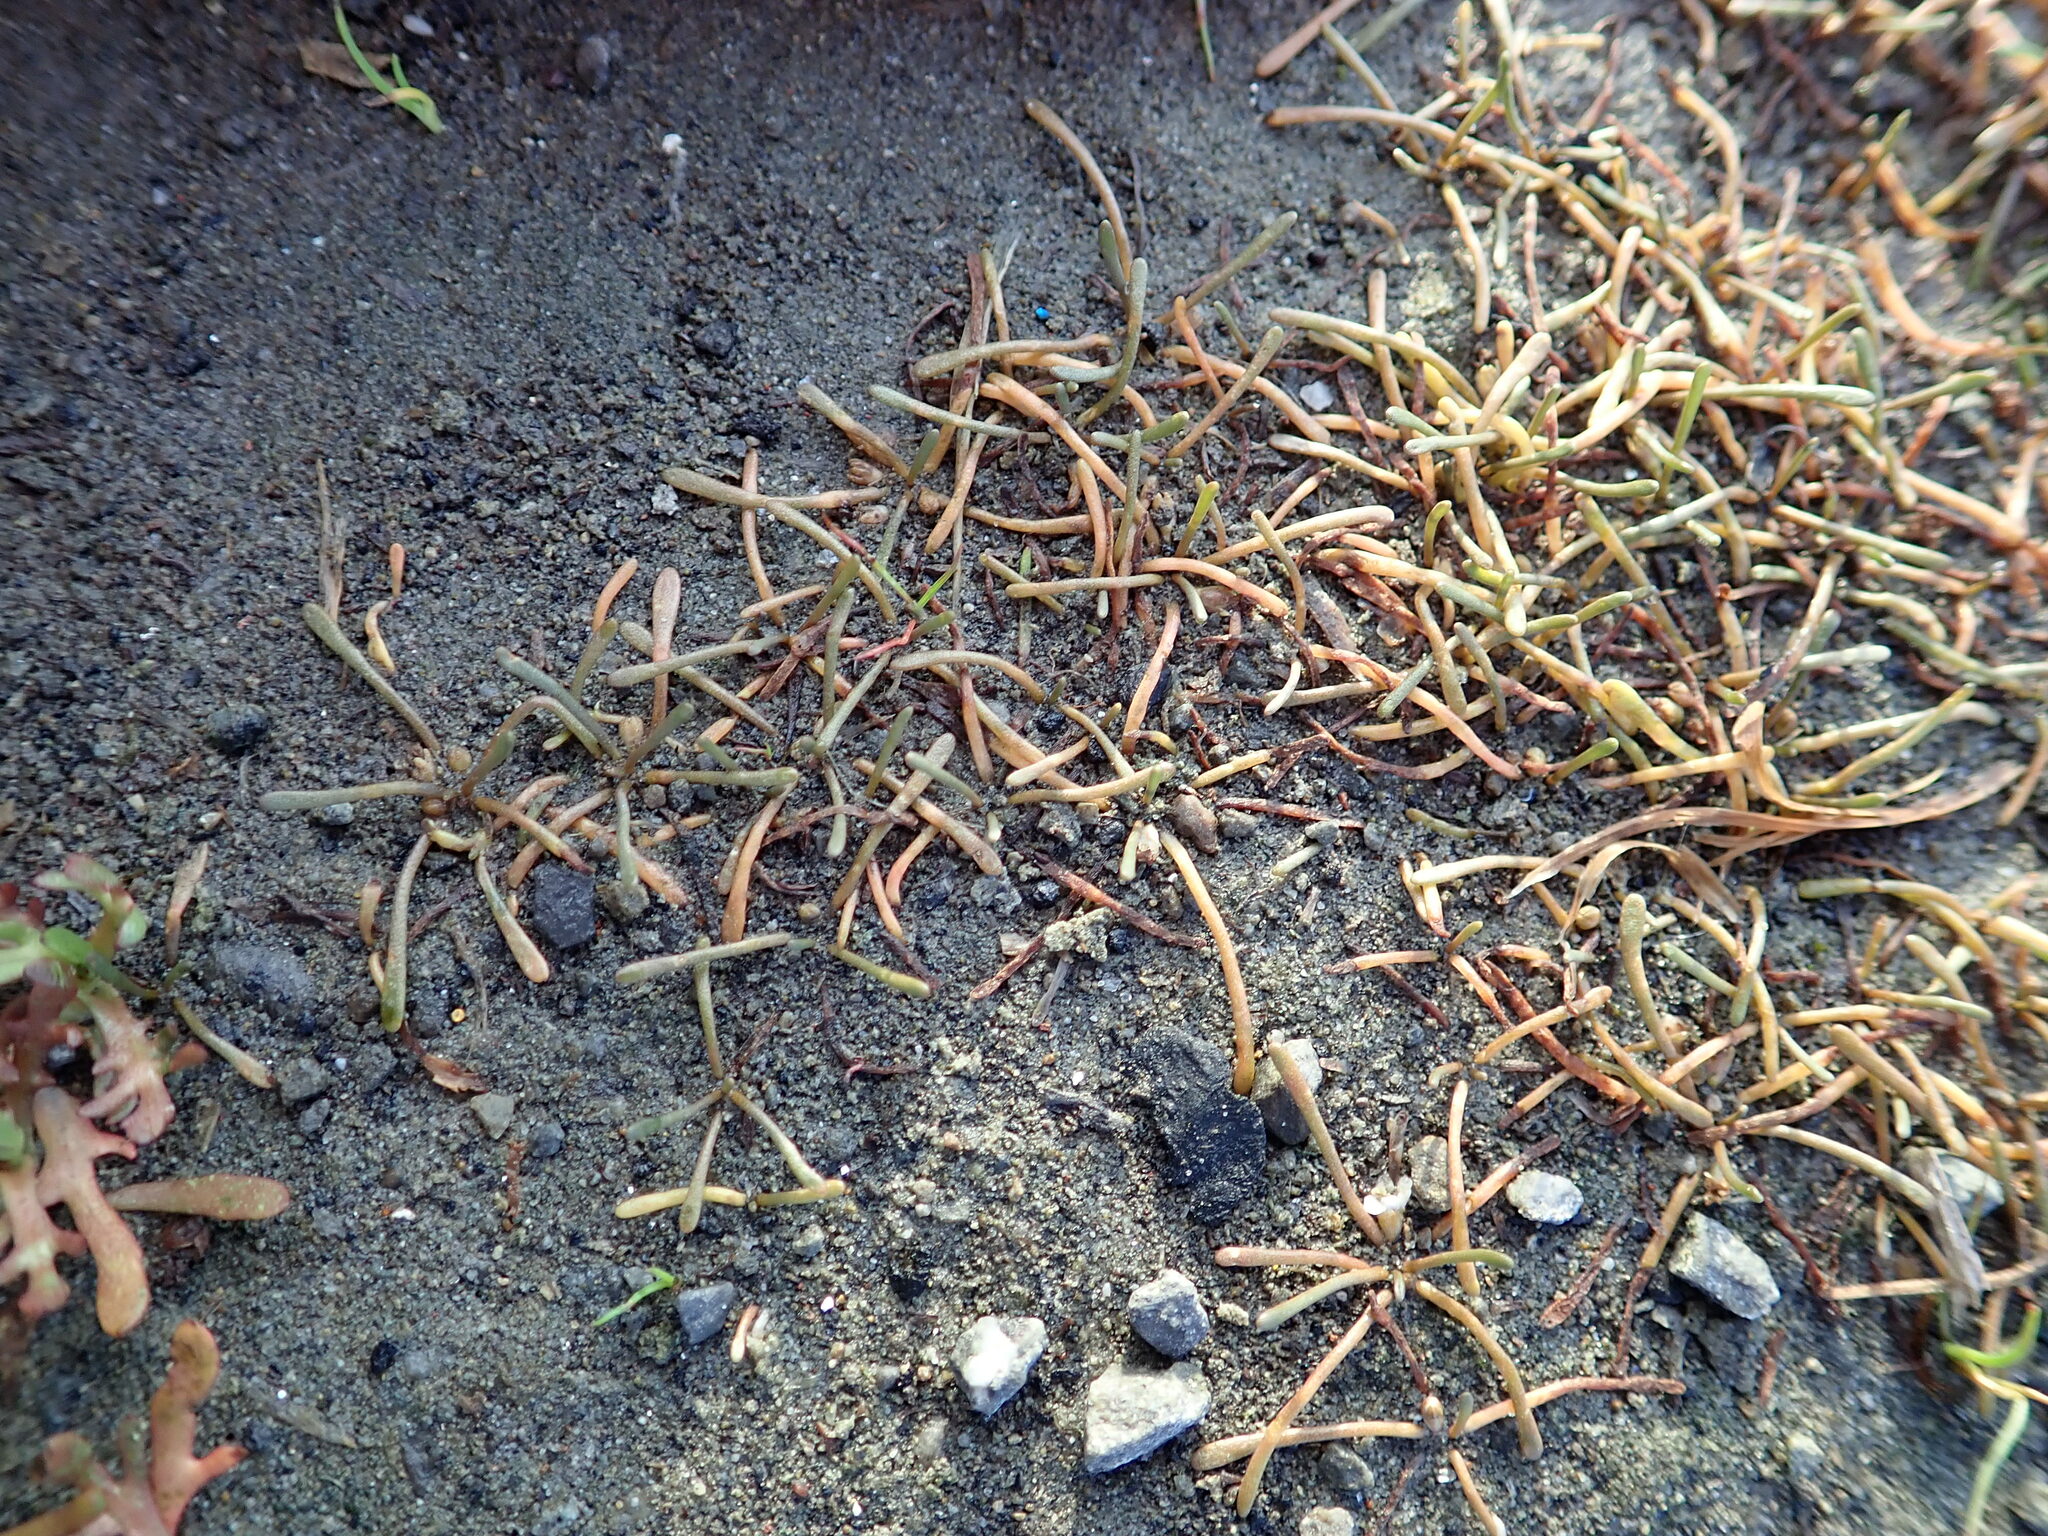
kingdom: Plantae
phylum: Tracheophyta
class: Magnoliopsida
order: Lamiales
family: Scrophulariaceae
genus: Limosella
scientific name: Limosella australis
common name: Welsh mudwort
